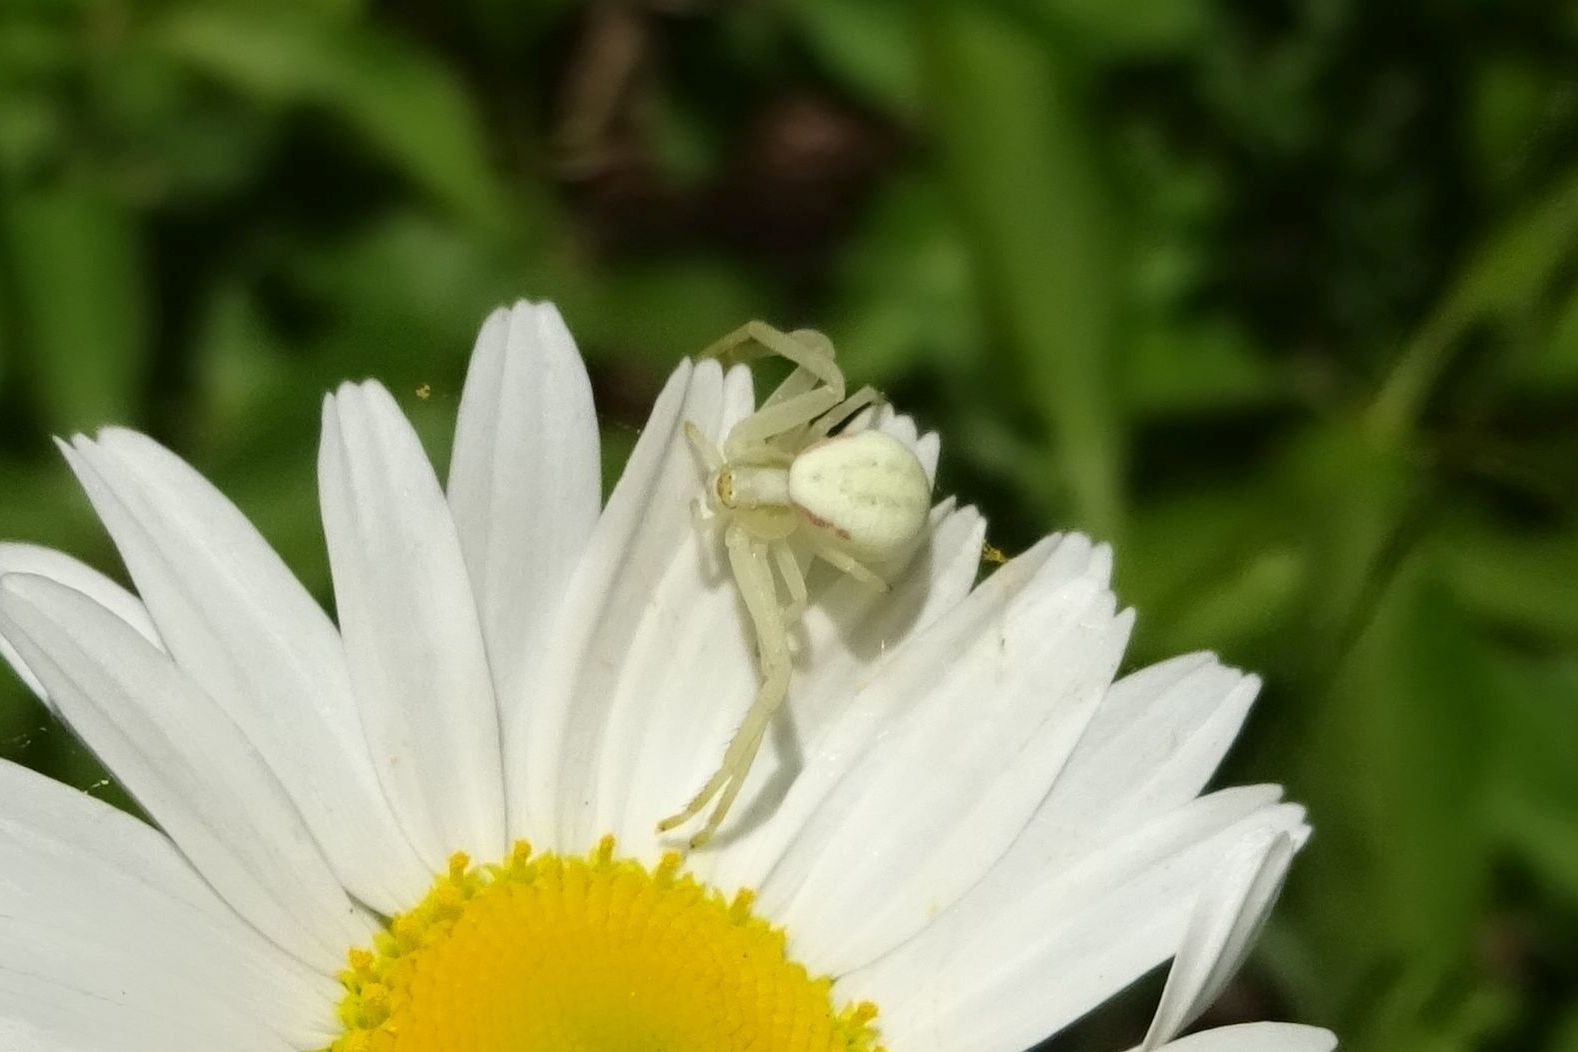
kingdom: Animalia
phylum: Arthropoda
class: Arachnida
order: Araneae
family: Thomisidae
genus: Misumena
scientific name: Misumena vatia
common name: Goldenrod crab spider
